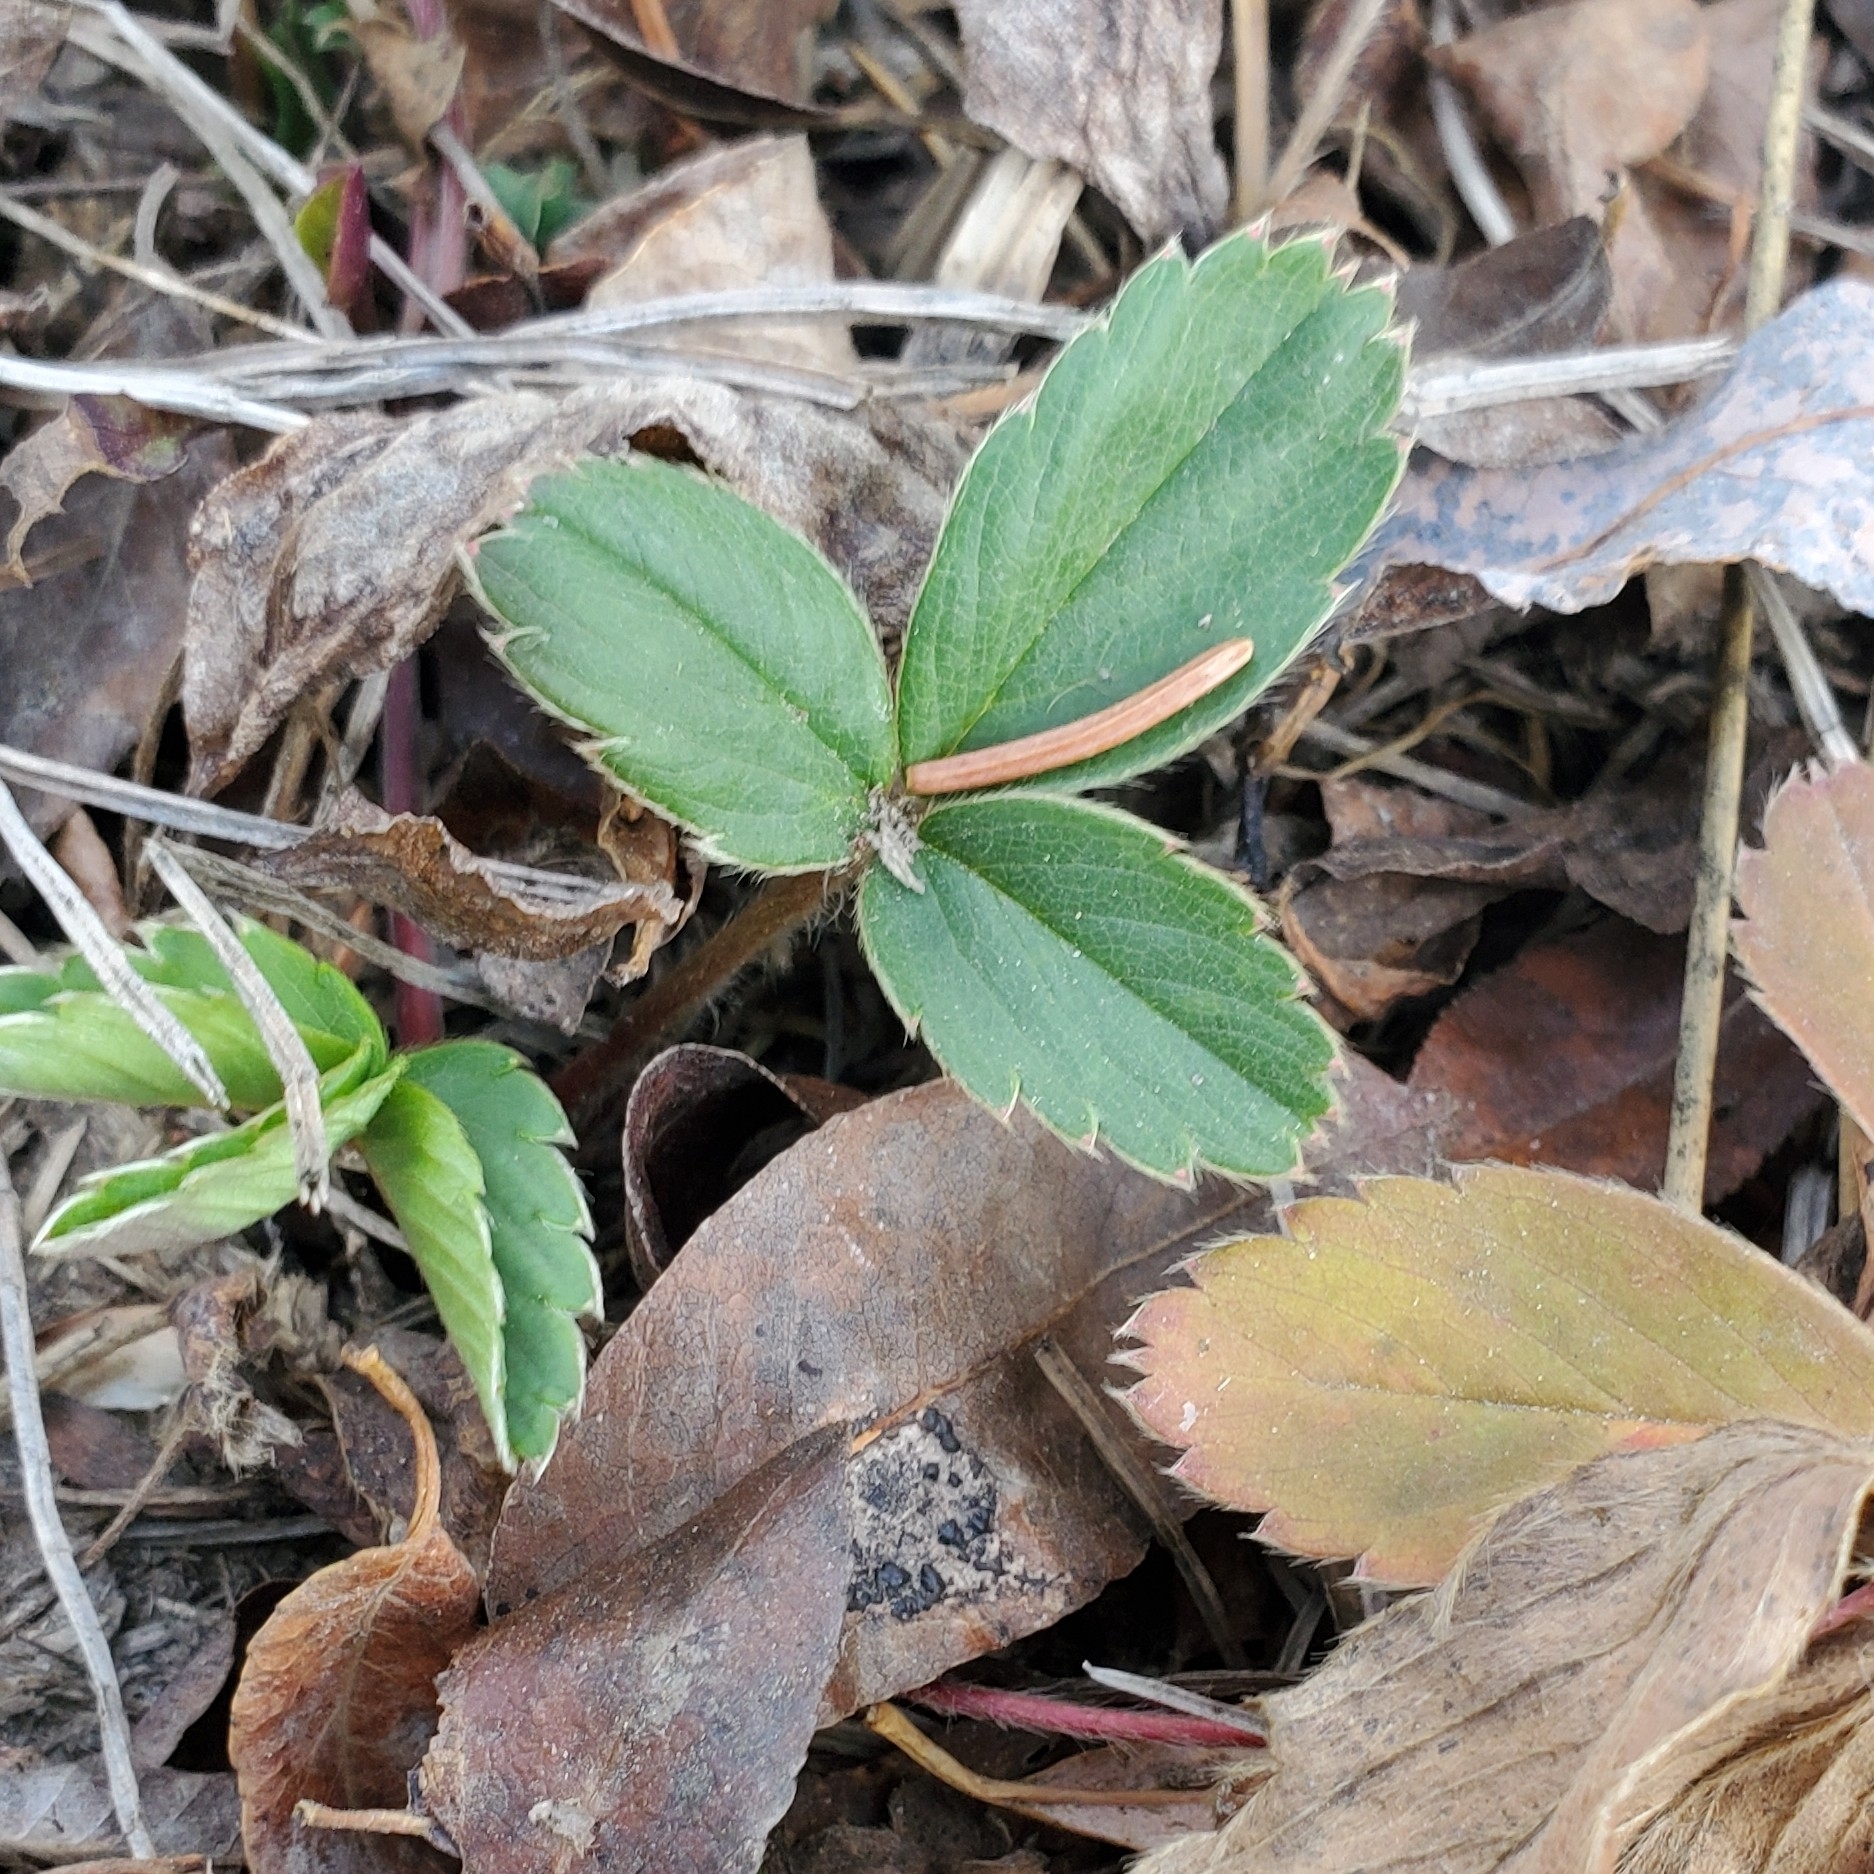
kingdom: Plantae
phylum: Tracheophyta
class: Magnoliopsida
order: Rosales
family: Rosaceae
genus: Fragaria
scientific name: Fragaria virginiana
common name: Thickleaved wild strawberry
